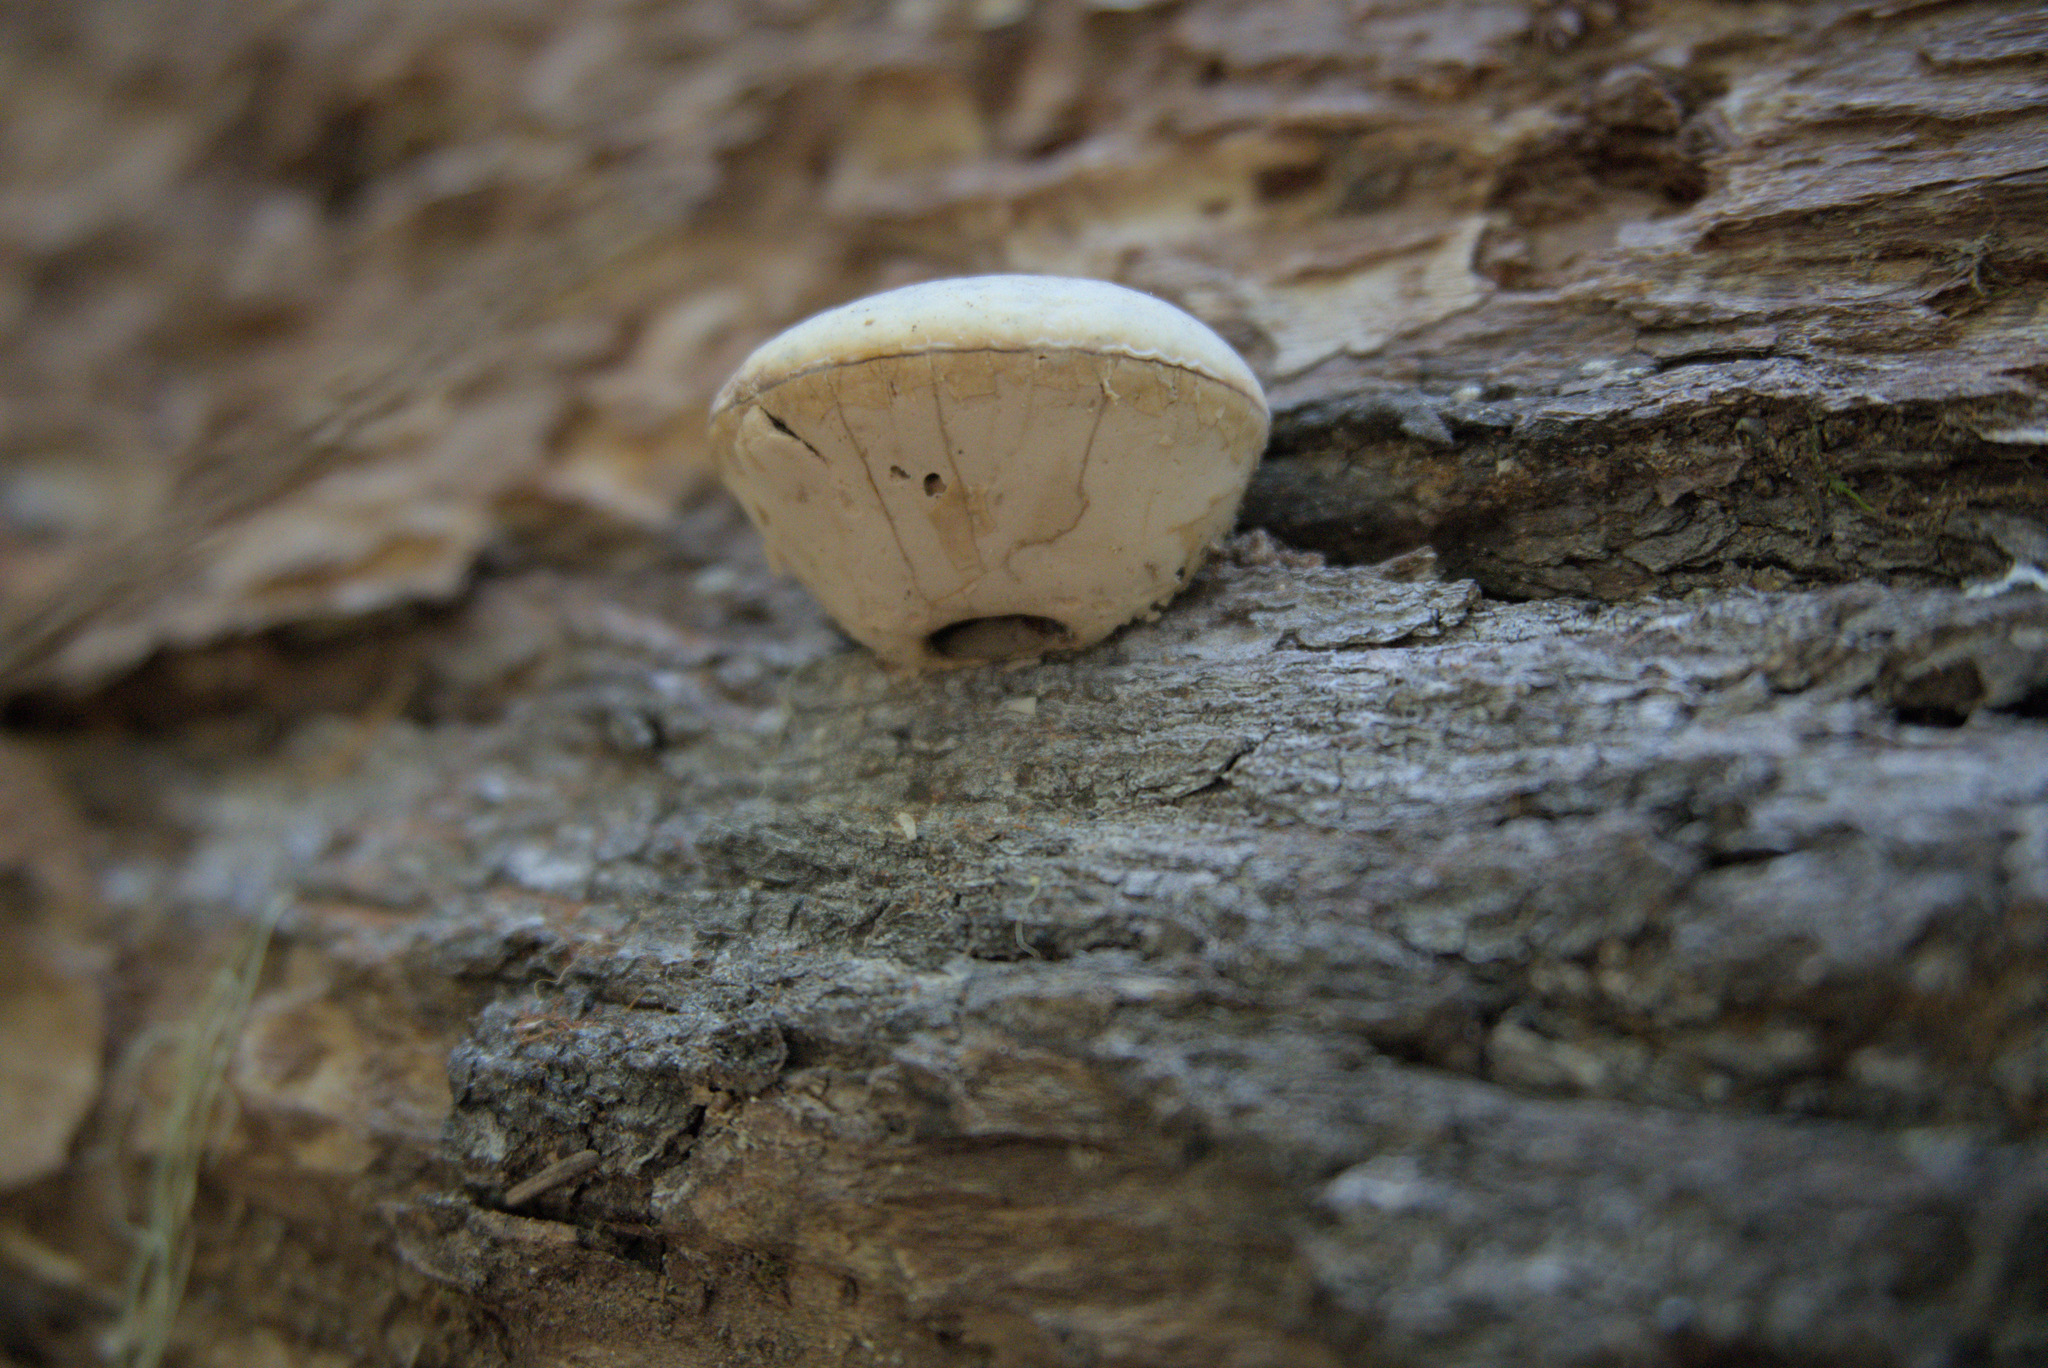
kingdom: Fungi
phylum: Basidiomycota
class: Agaricomycetes
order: Polyporales
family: Polyporaceae
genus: Cryptoporus
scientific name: Cryptoporus volvatus
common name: Veiled polypore
